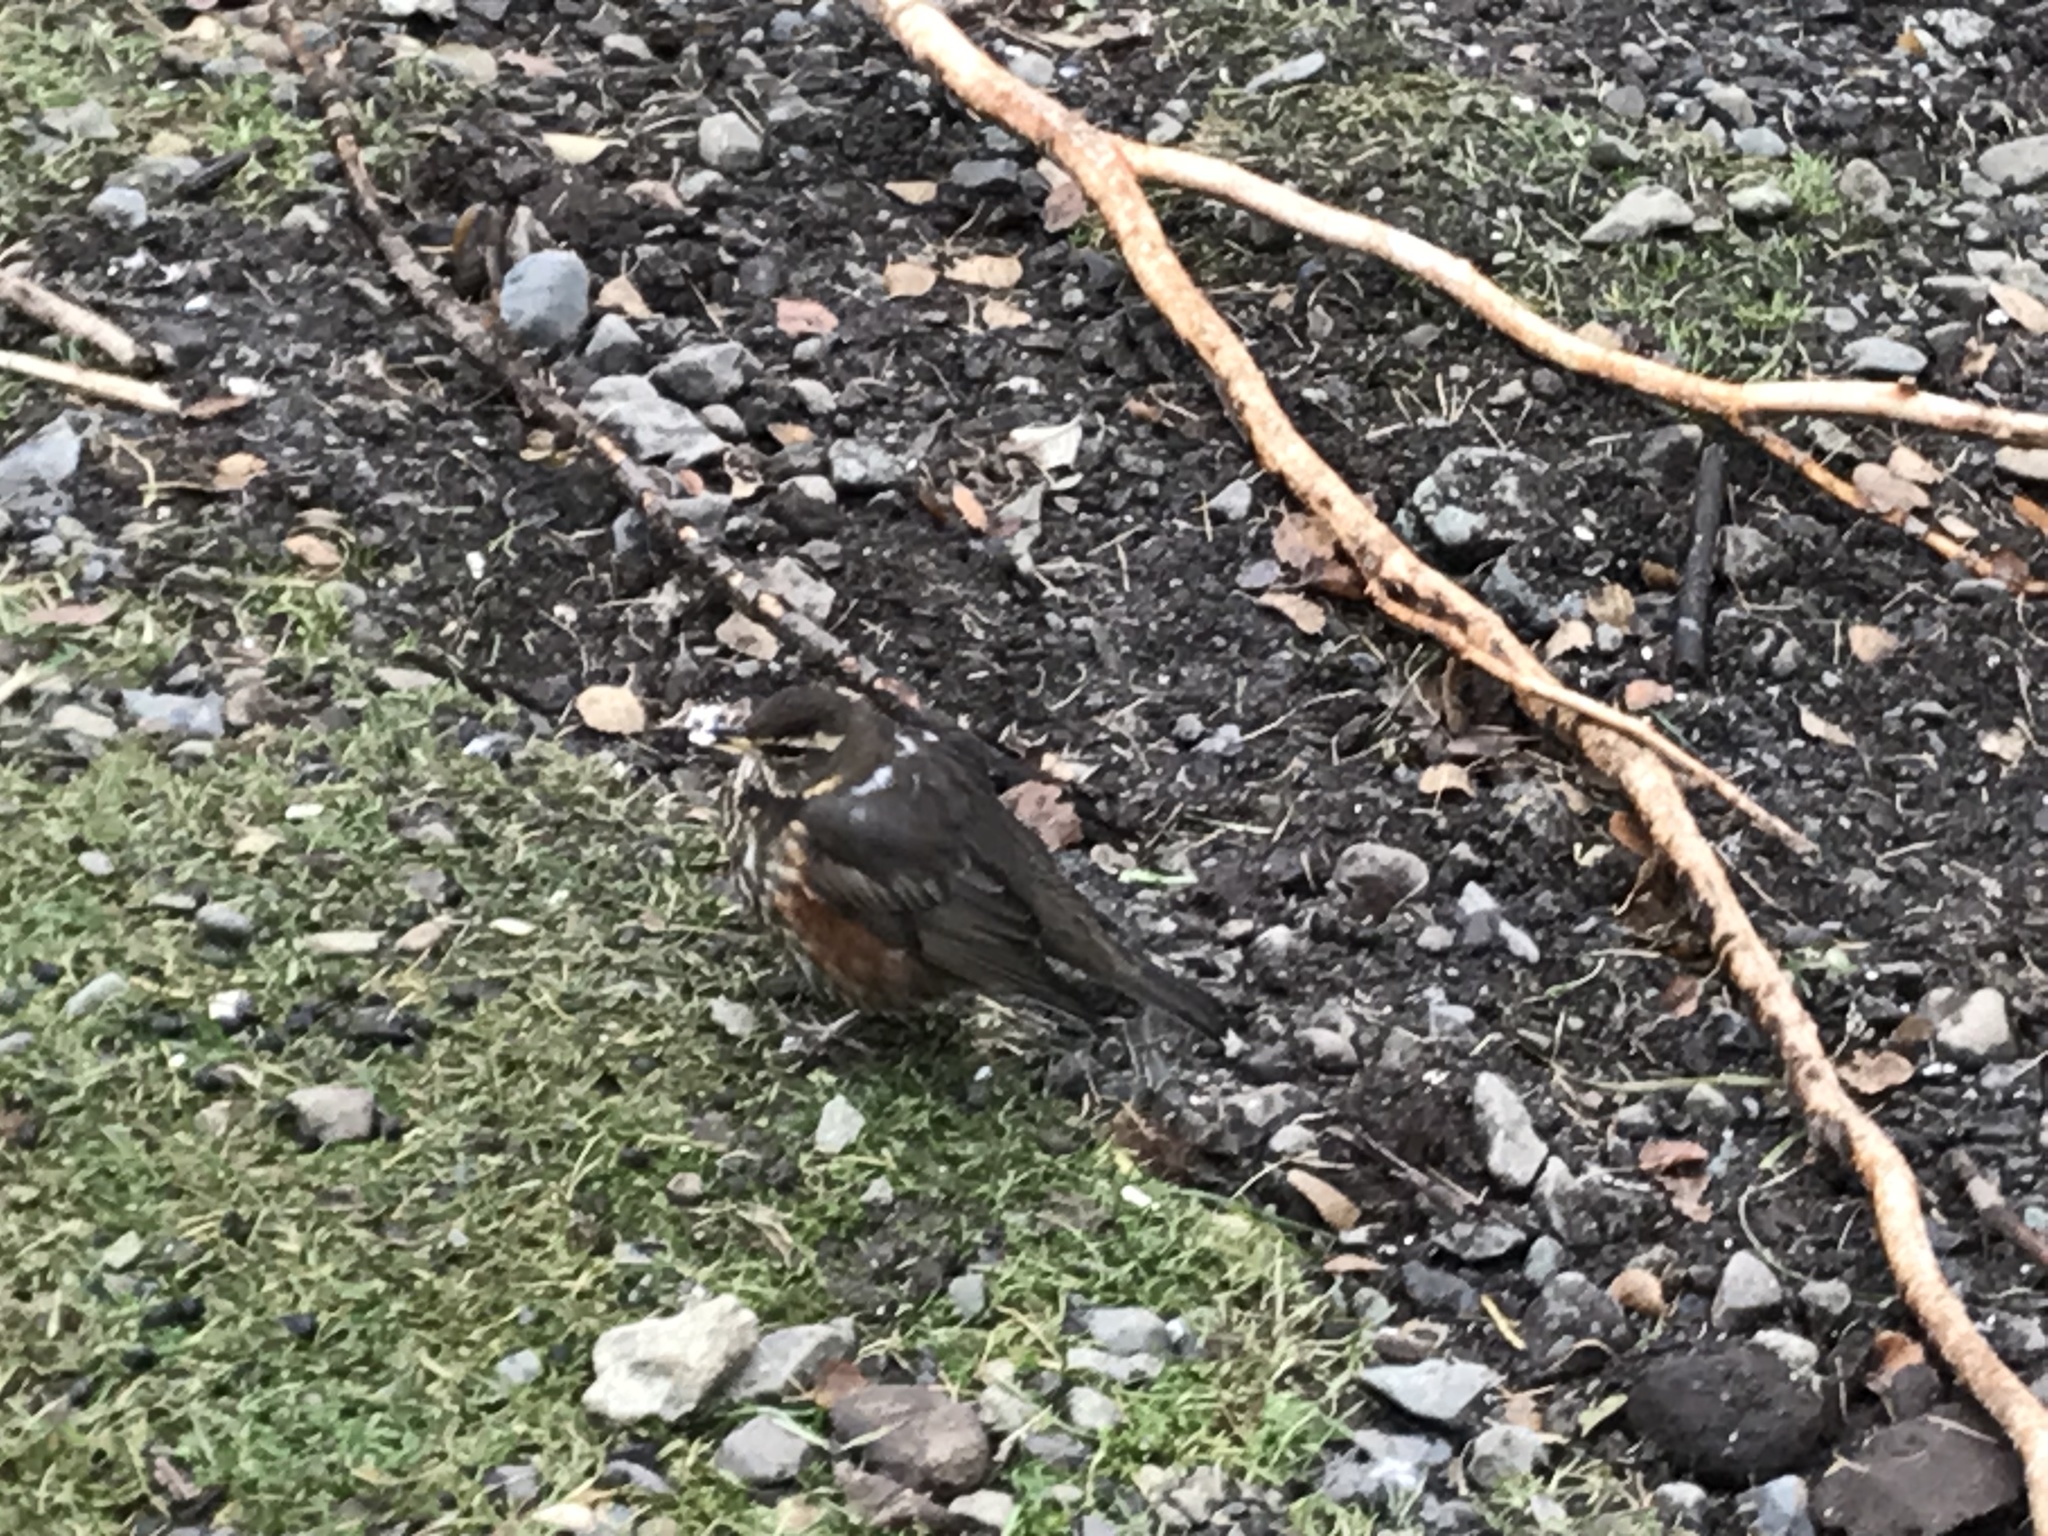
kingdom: Animalia
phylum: Chordata
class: Aves
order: Passeriformes
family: Turdidae
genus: Turdus
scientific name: Turdus iliacus
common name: Redwing
